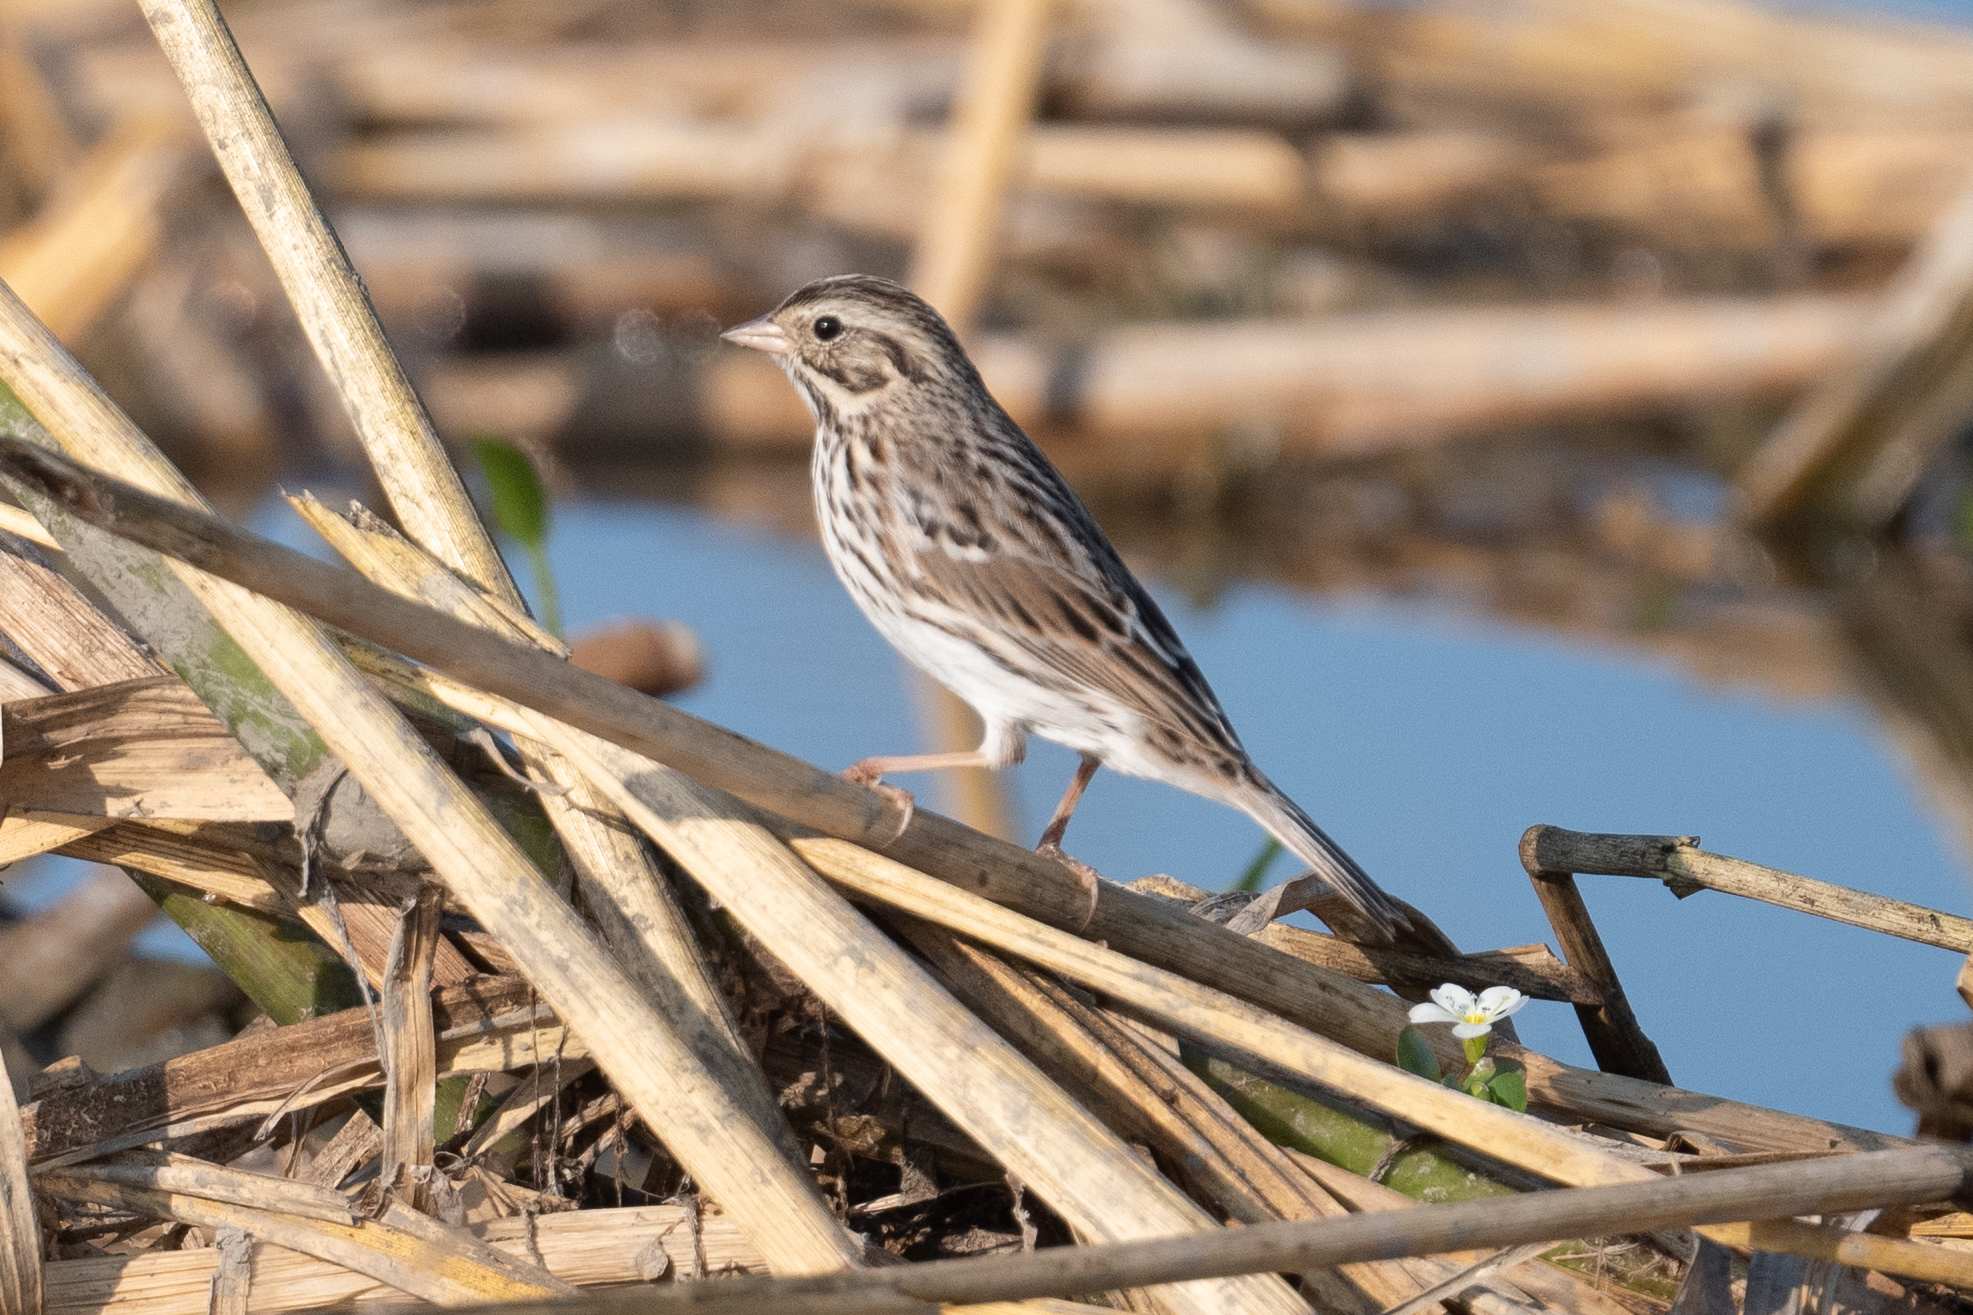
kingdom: Animalia
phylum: Chordata
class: Aves
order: Passeriformes
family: Passerellidae
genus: Passerculus
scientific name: Passerculus sandwichensis
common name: Savannah sparrow
